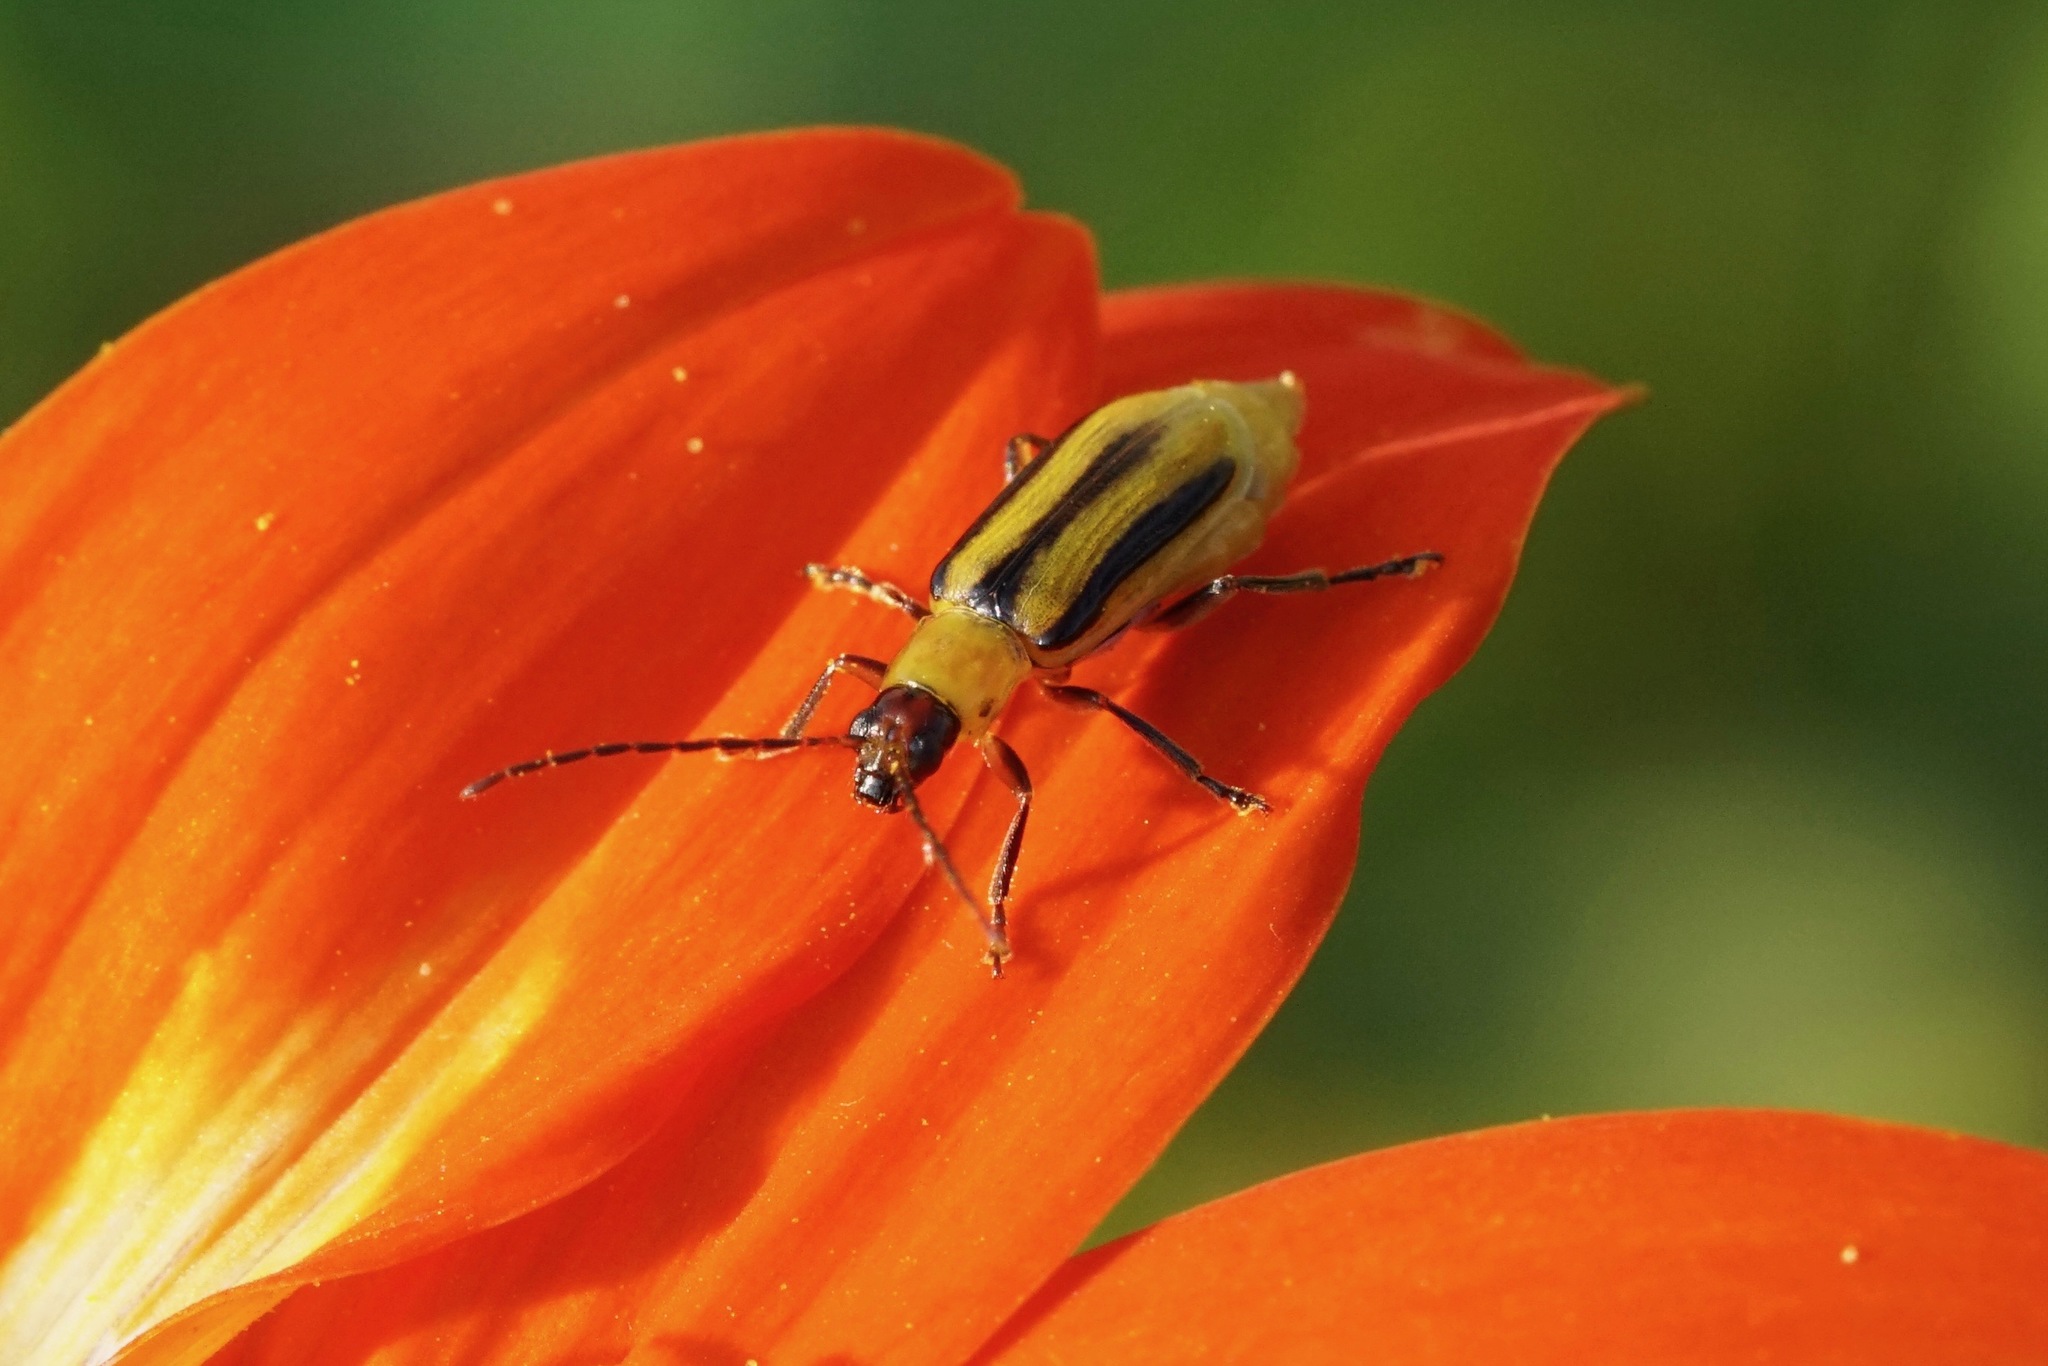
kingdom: Animalia
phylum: Arthropoda
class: Insecta
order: Coleoptera
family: Chrysomelidae
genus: Diabrotica
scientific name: Diabrotica virgifera
